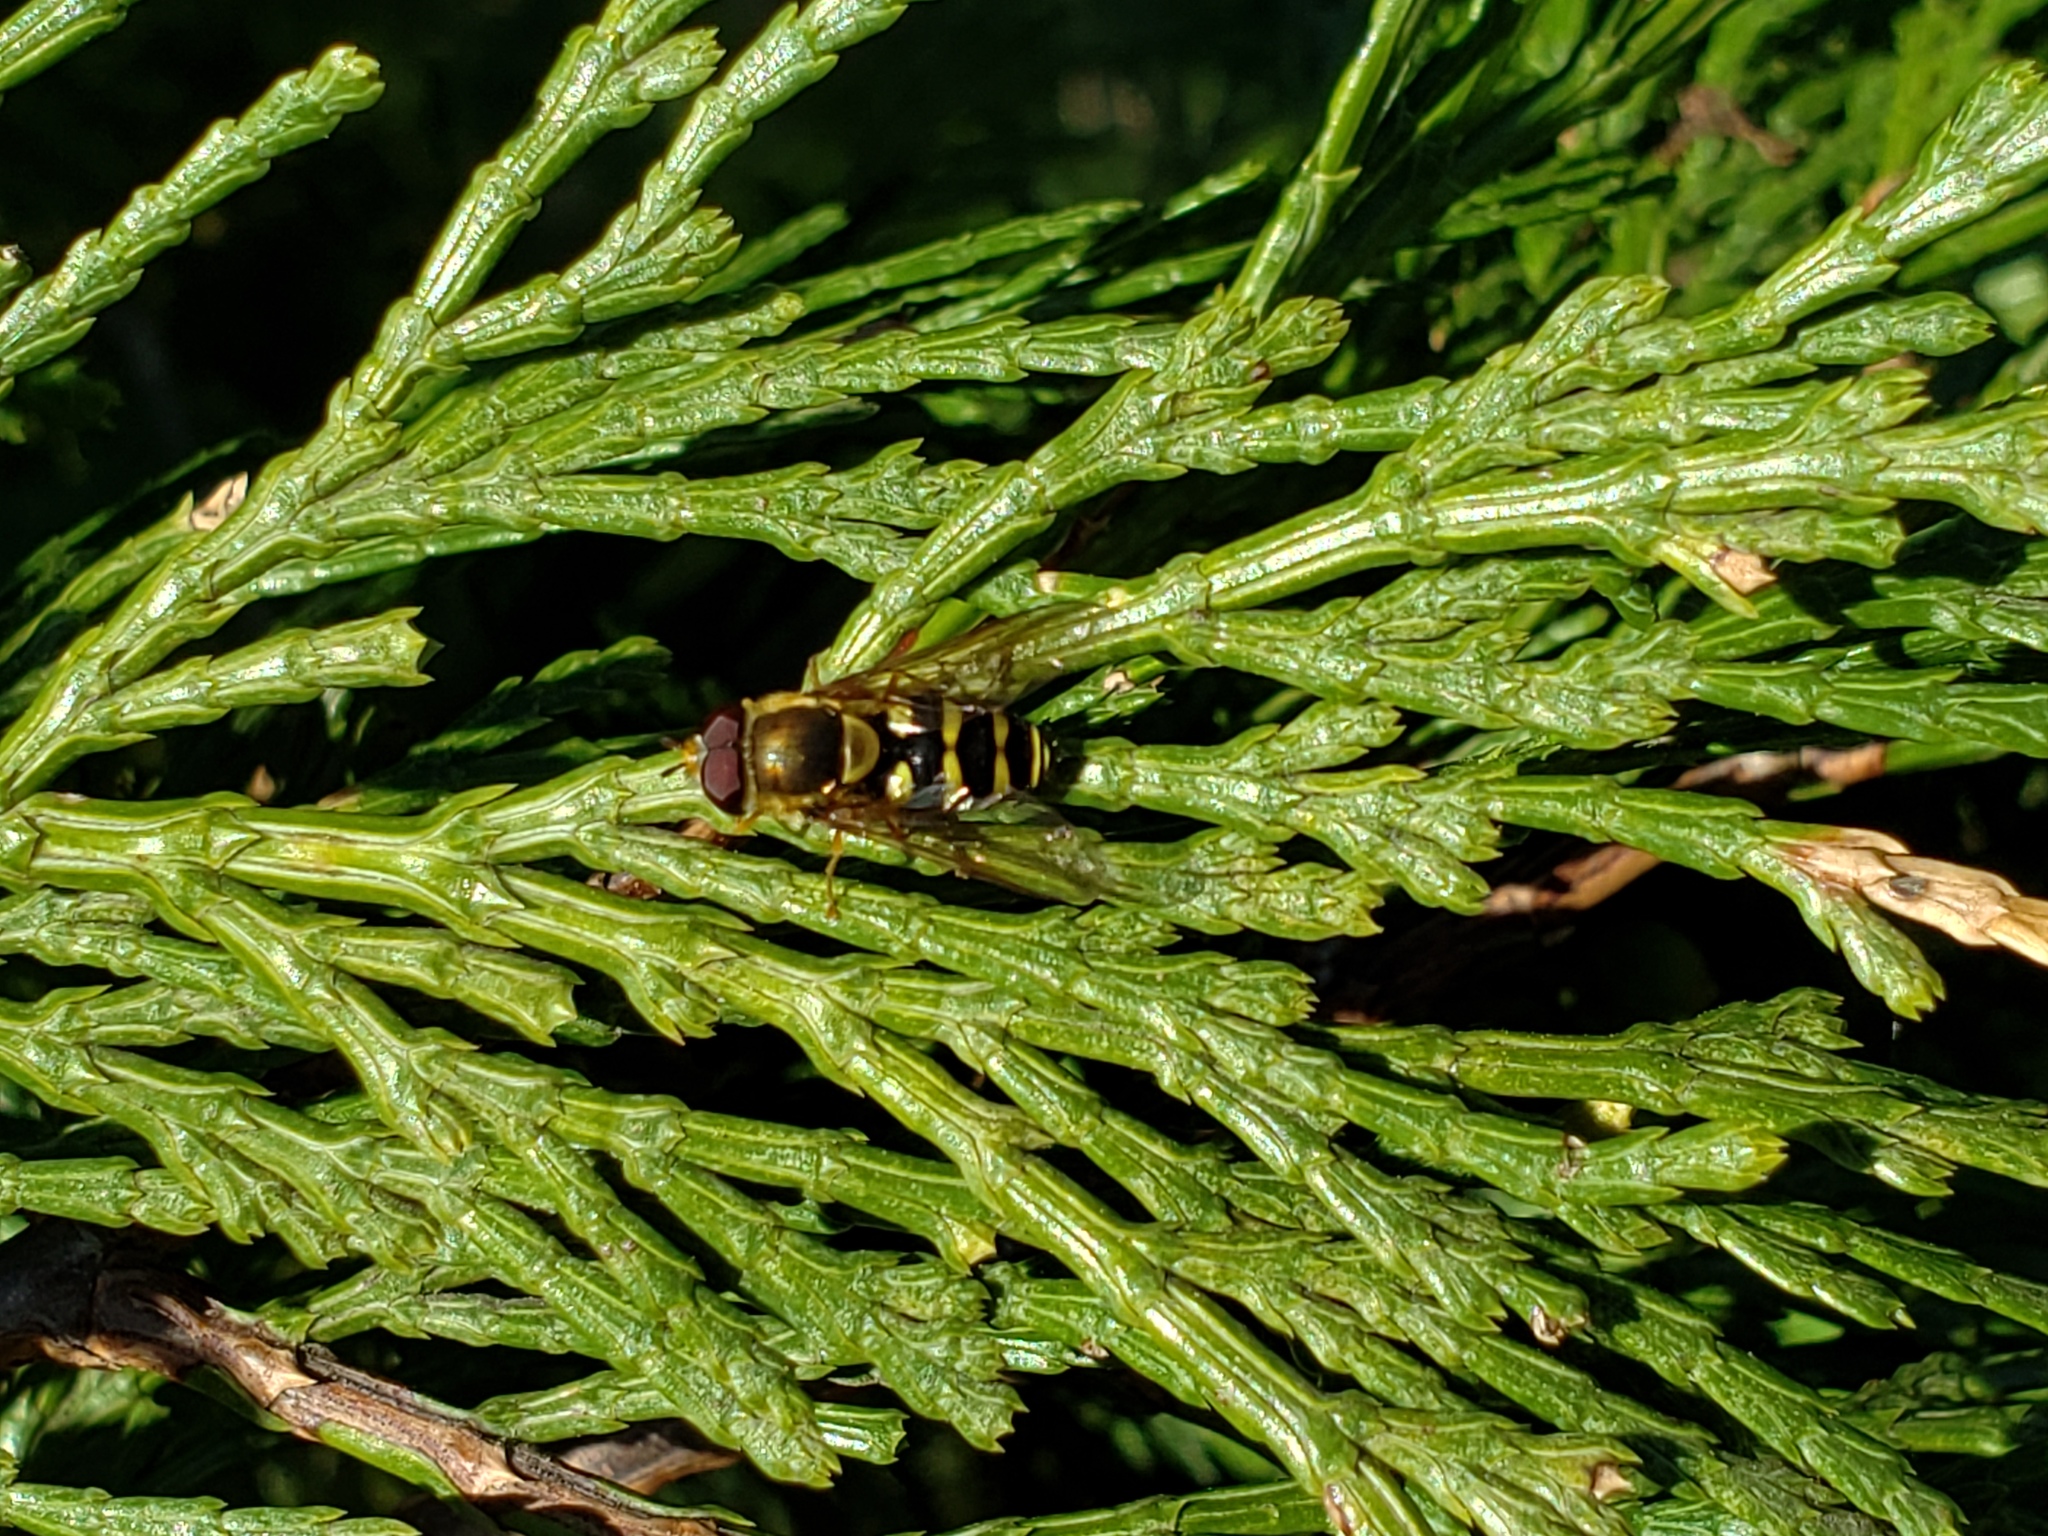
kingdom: Animalia
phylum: Arthropoda
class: Insecta
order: Diptera
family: Syrphidae
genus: Syrphus
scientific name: Syrphus opinator
